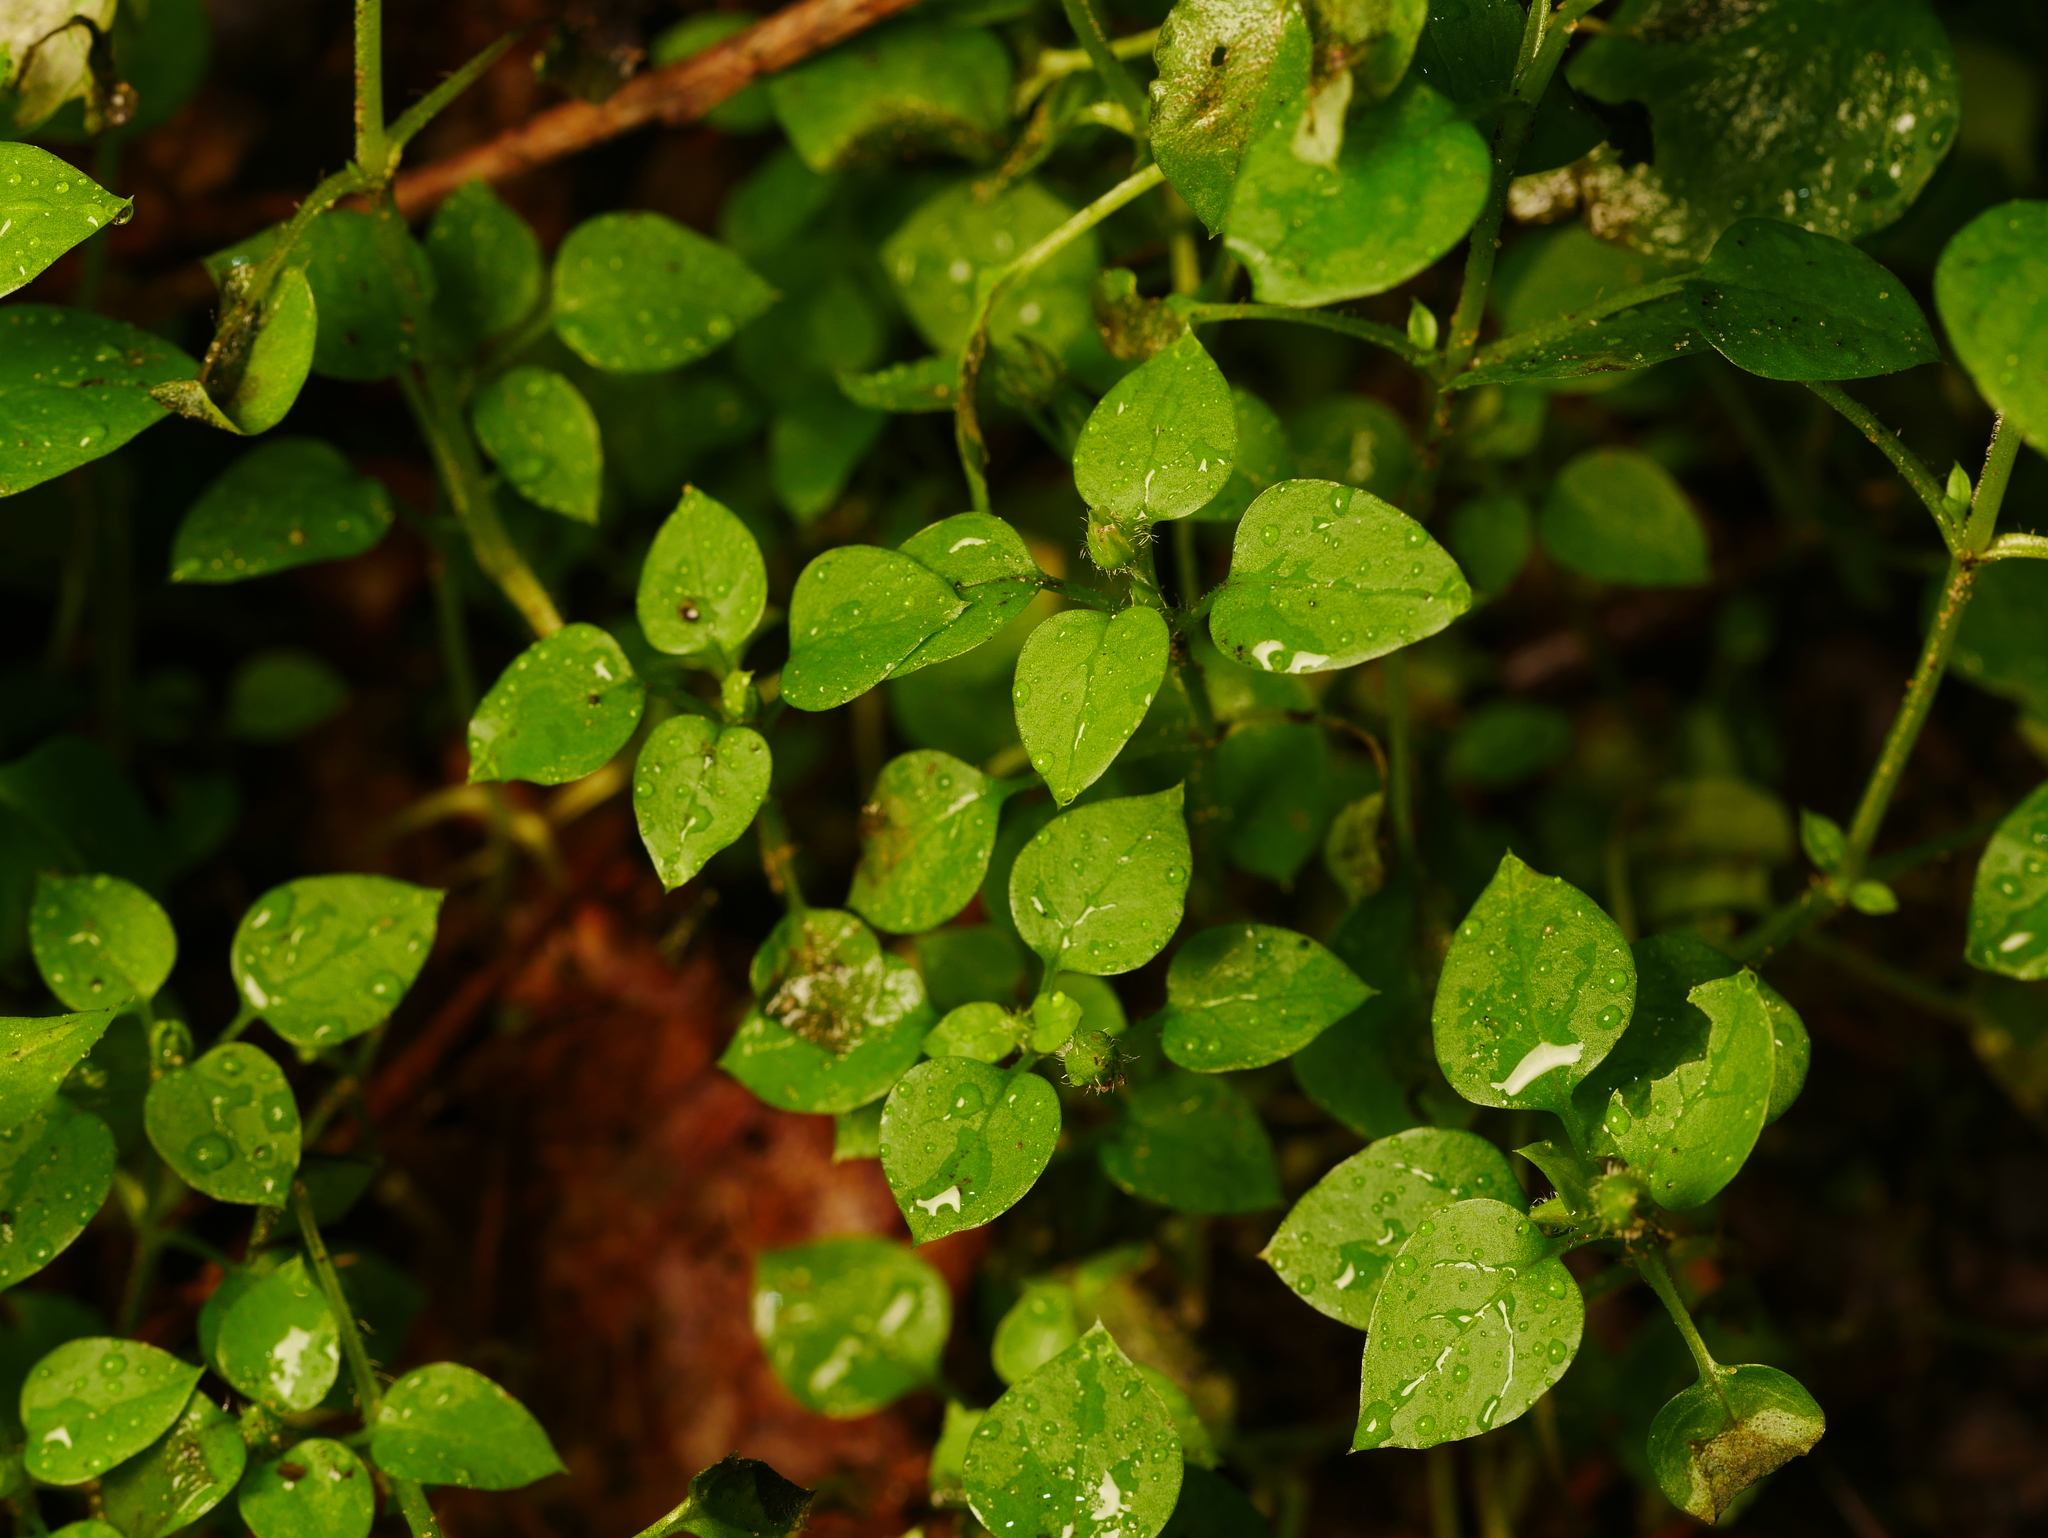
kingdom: Plantae
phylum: Tracheophyta
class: Magnoliopsida
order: Caryophyllales
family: Caryophyllaceae
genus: Stellaria
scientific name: Stellaria media
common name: Common chickweed
